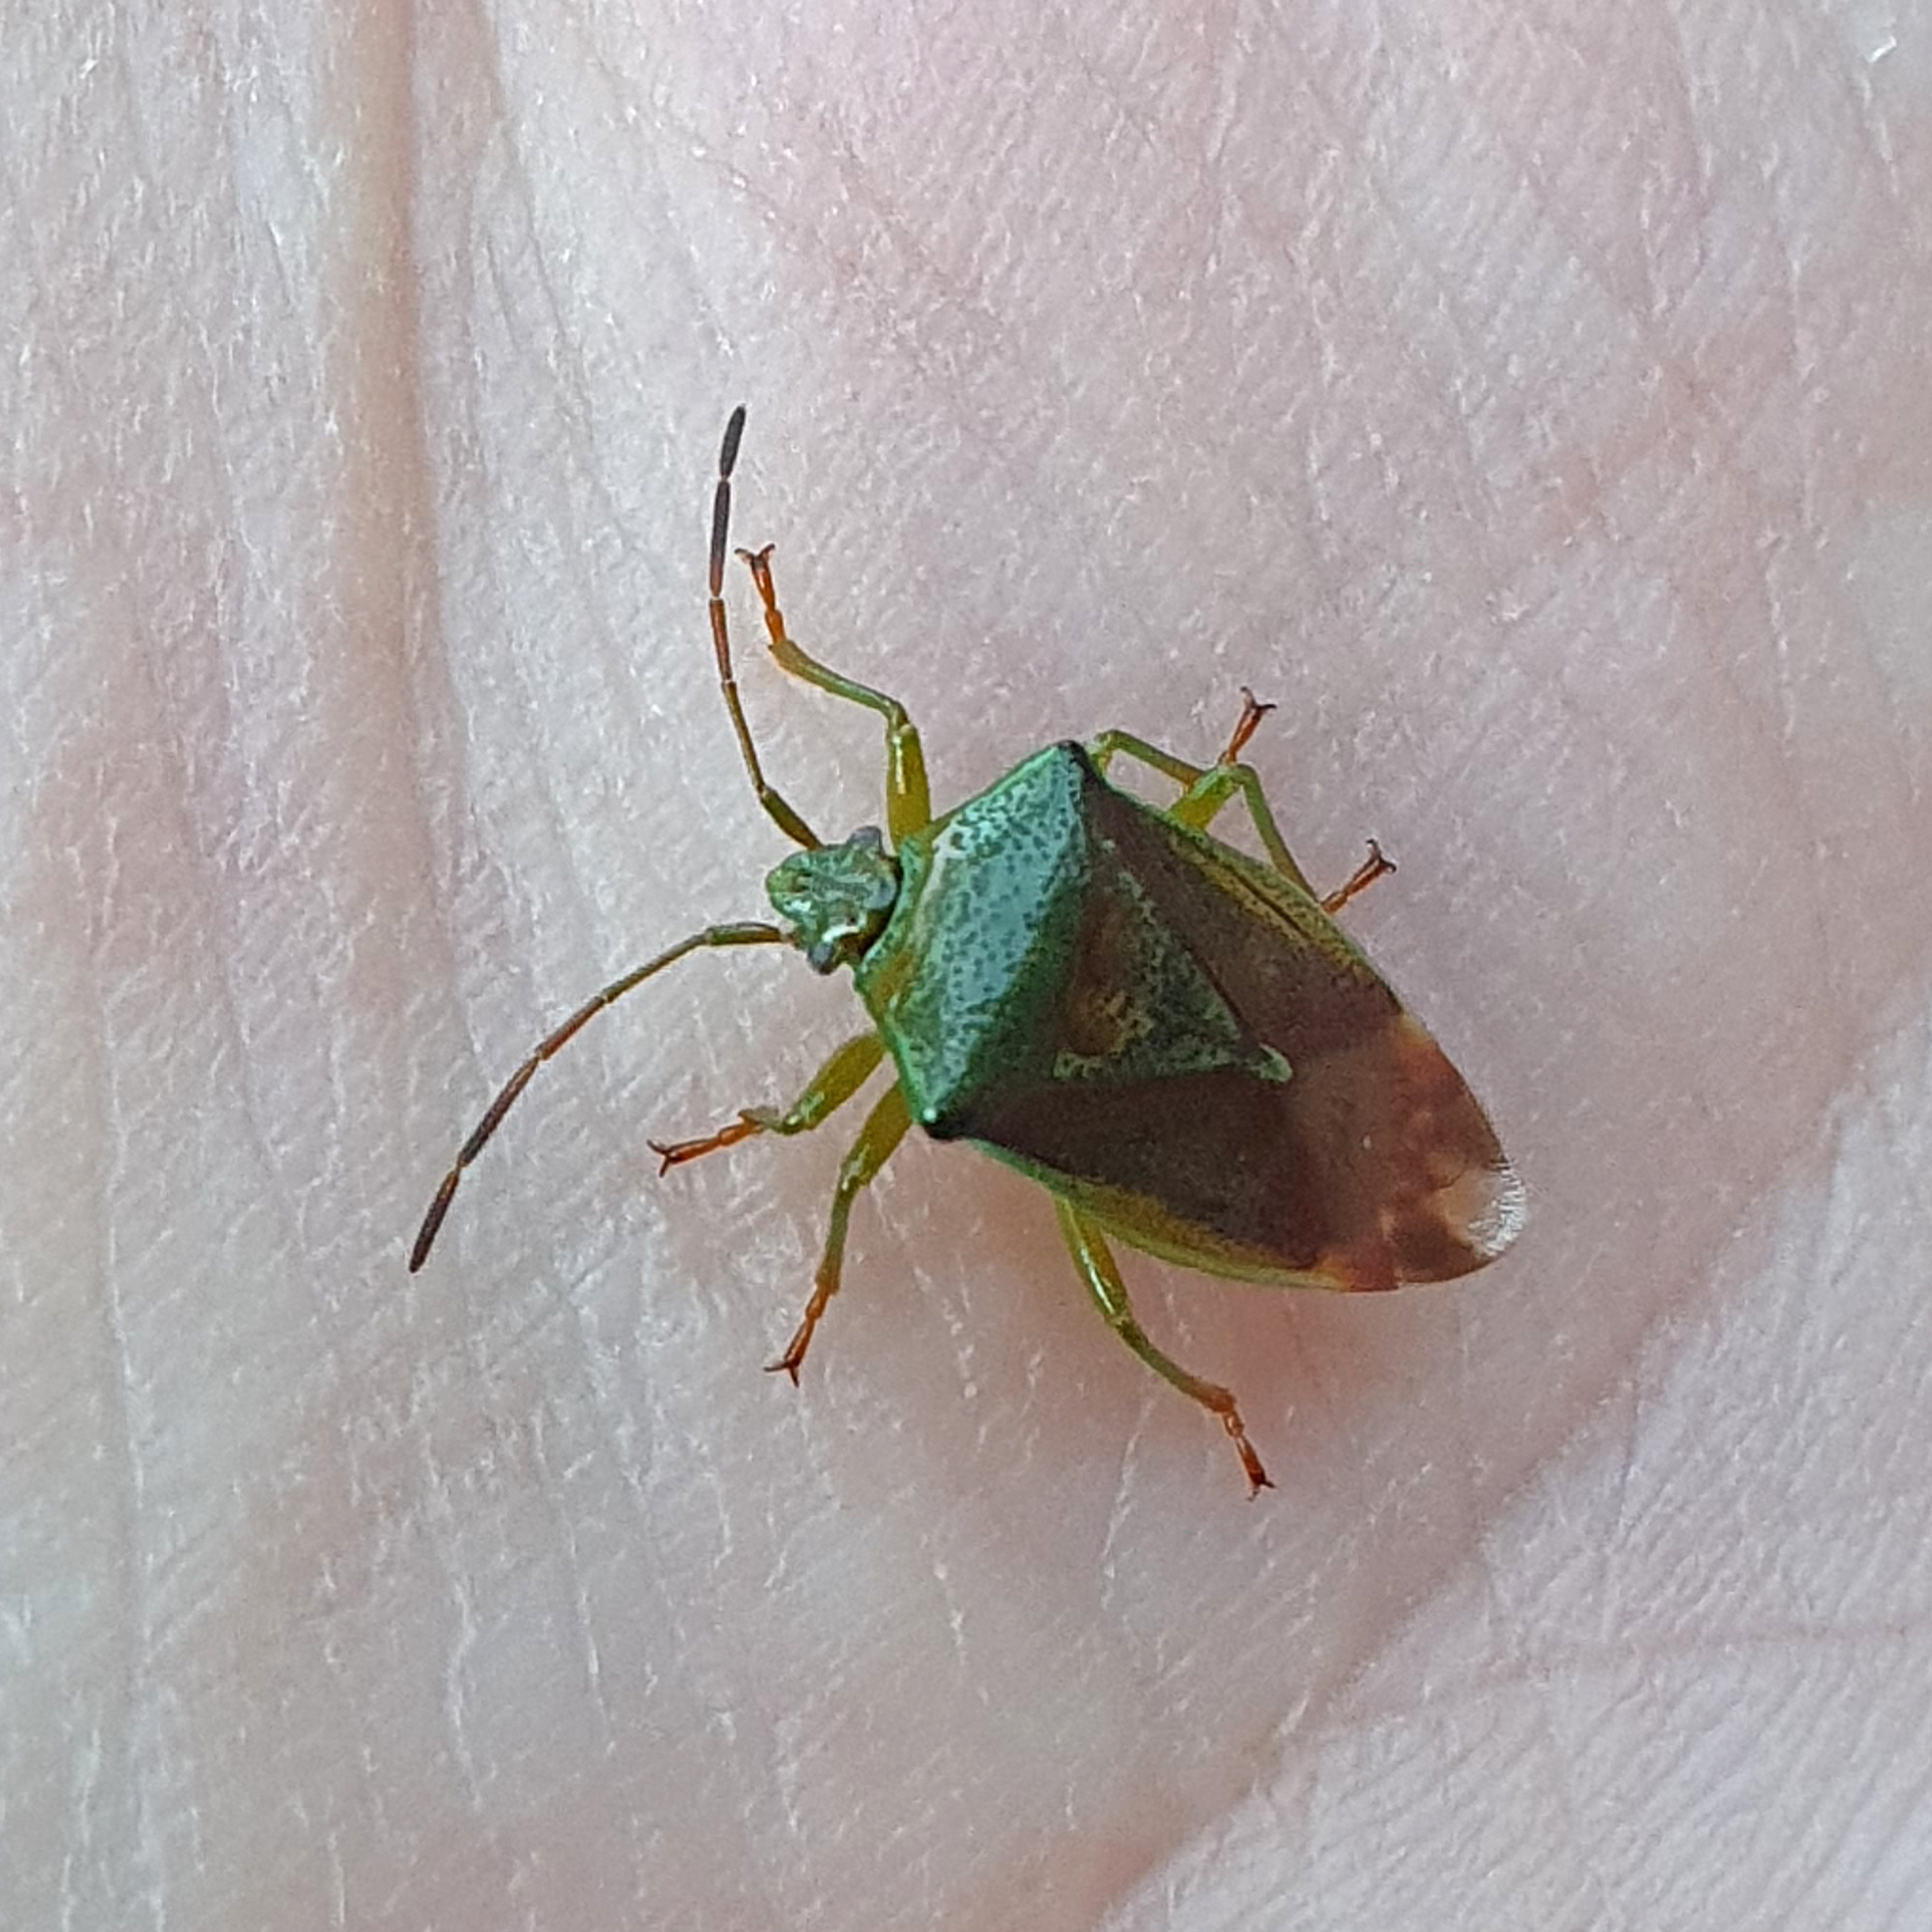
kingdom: Animalia
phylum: Arthropoda
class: Insecta
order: Hemiptera
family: Acanthosomatidae
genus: Elasmostethus
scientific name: Elasmostethus interstinctus
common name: Birch shieldbug
